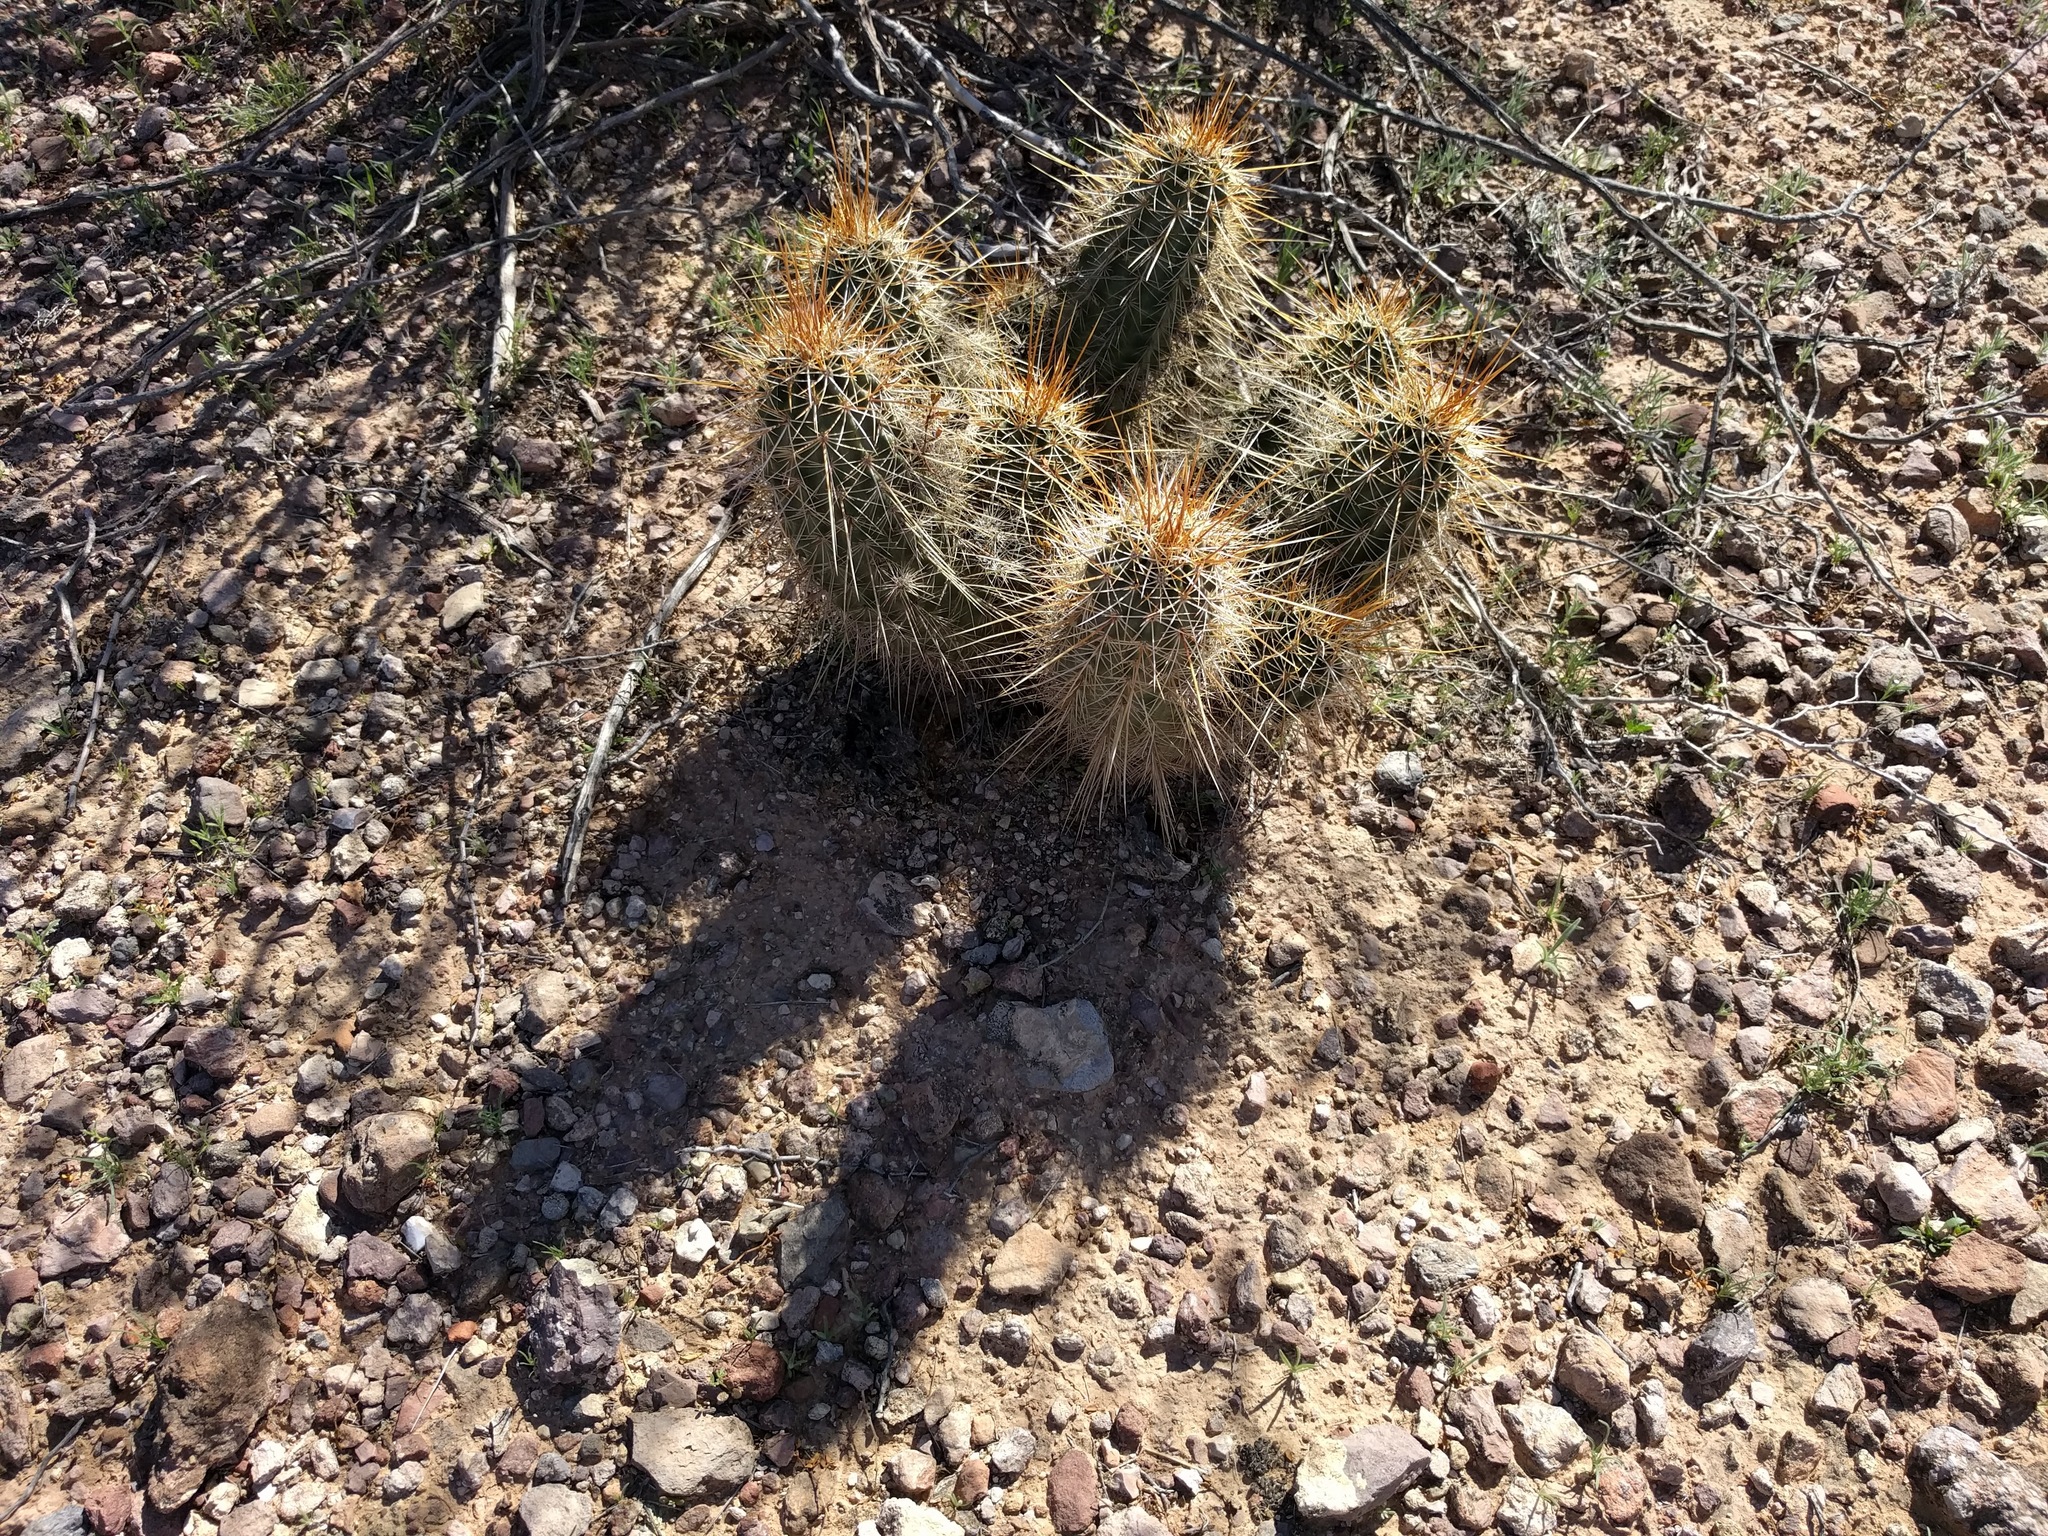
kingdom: Plantae
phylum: Tracheophyta
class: Magnoliopsida
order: Caryophyllales
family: Cactaceae
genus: Echinocereus
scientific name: Echinocereus engelmannii
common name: Engelmann's hedgehog cactus
